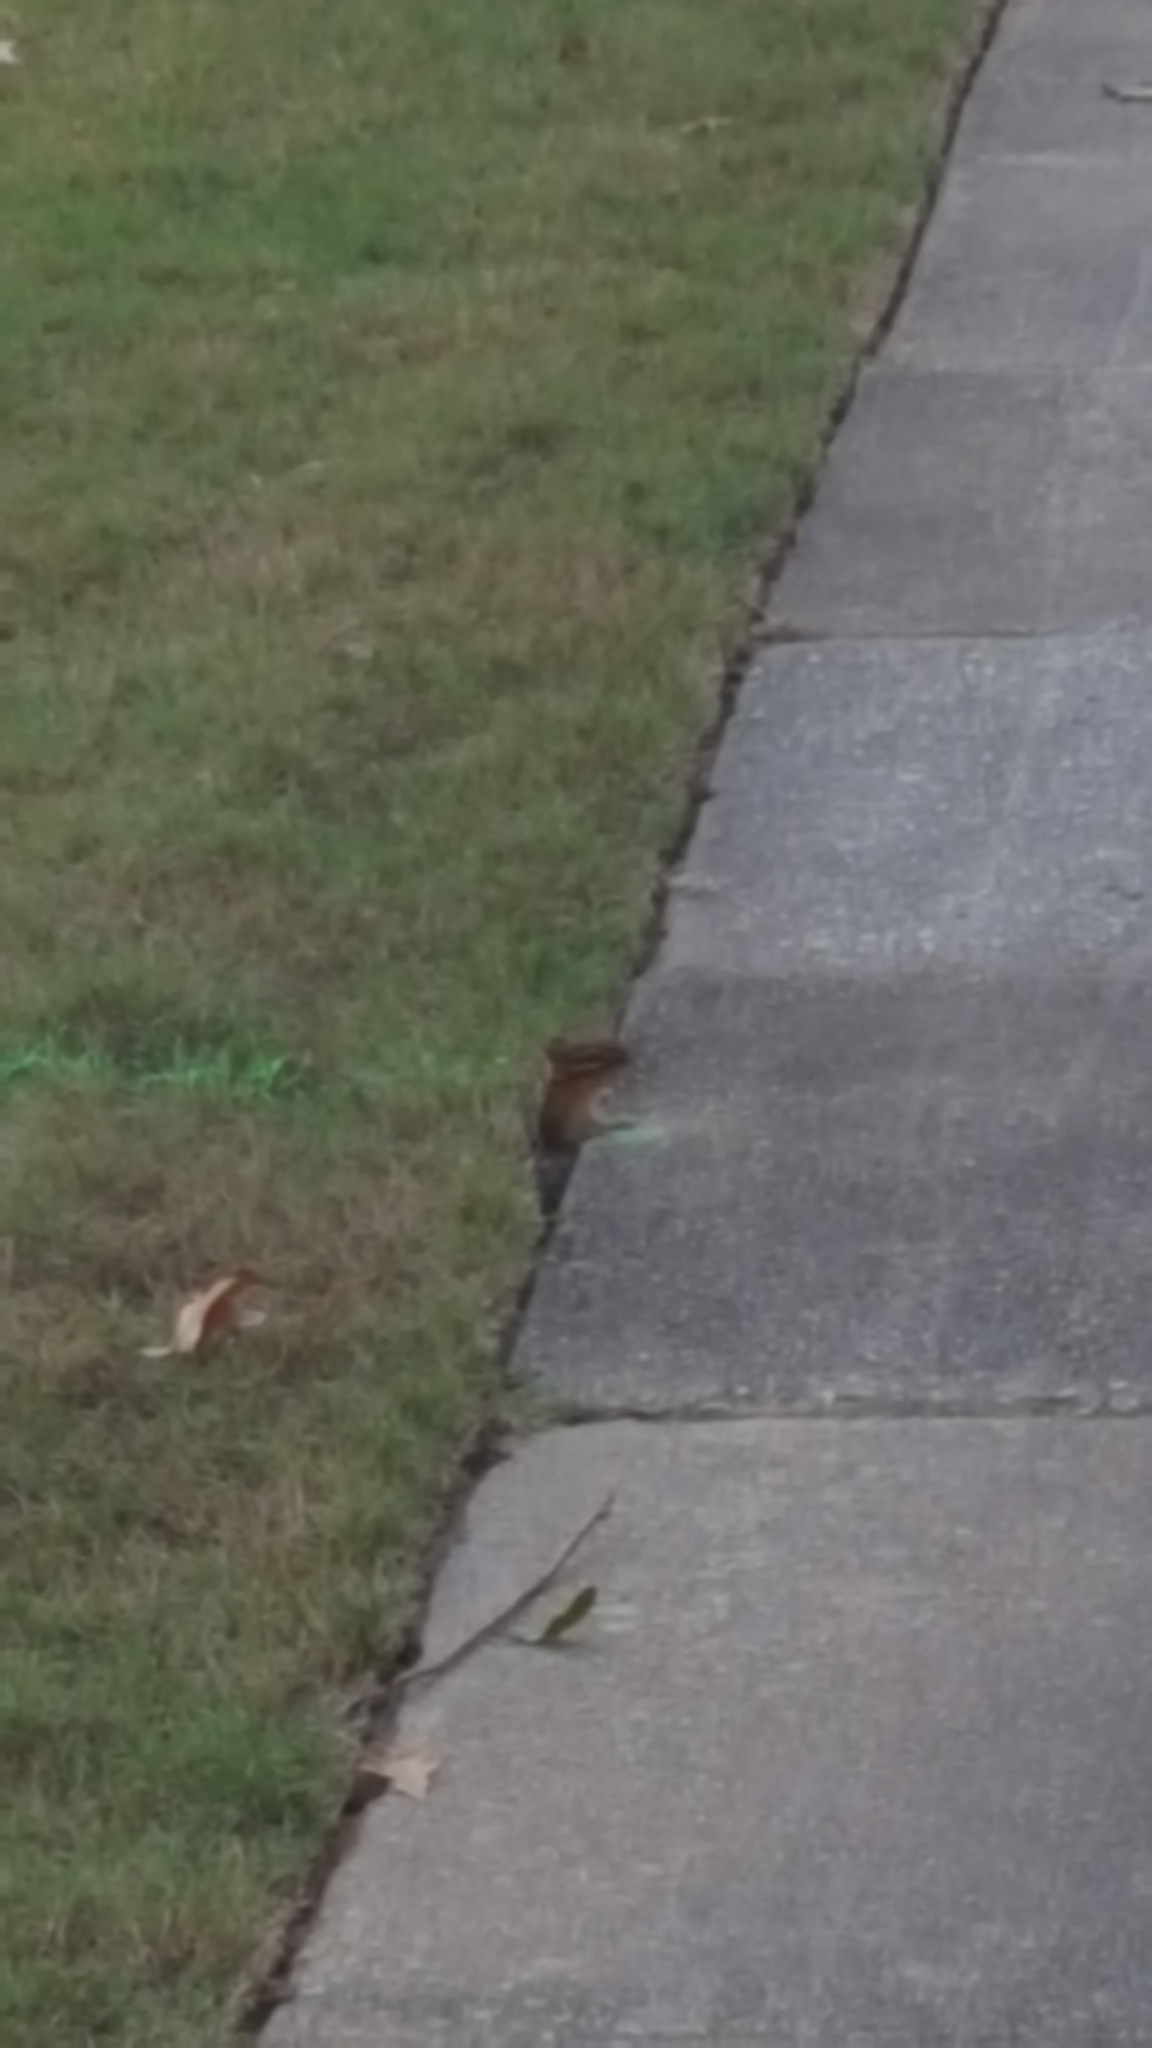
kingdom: Animalia
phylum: Chordata
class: Mammalia
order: Rodentia
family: Sciuridae
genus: Tamias
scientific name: Tamias striatus
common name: Eastern chipmunk
